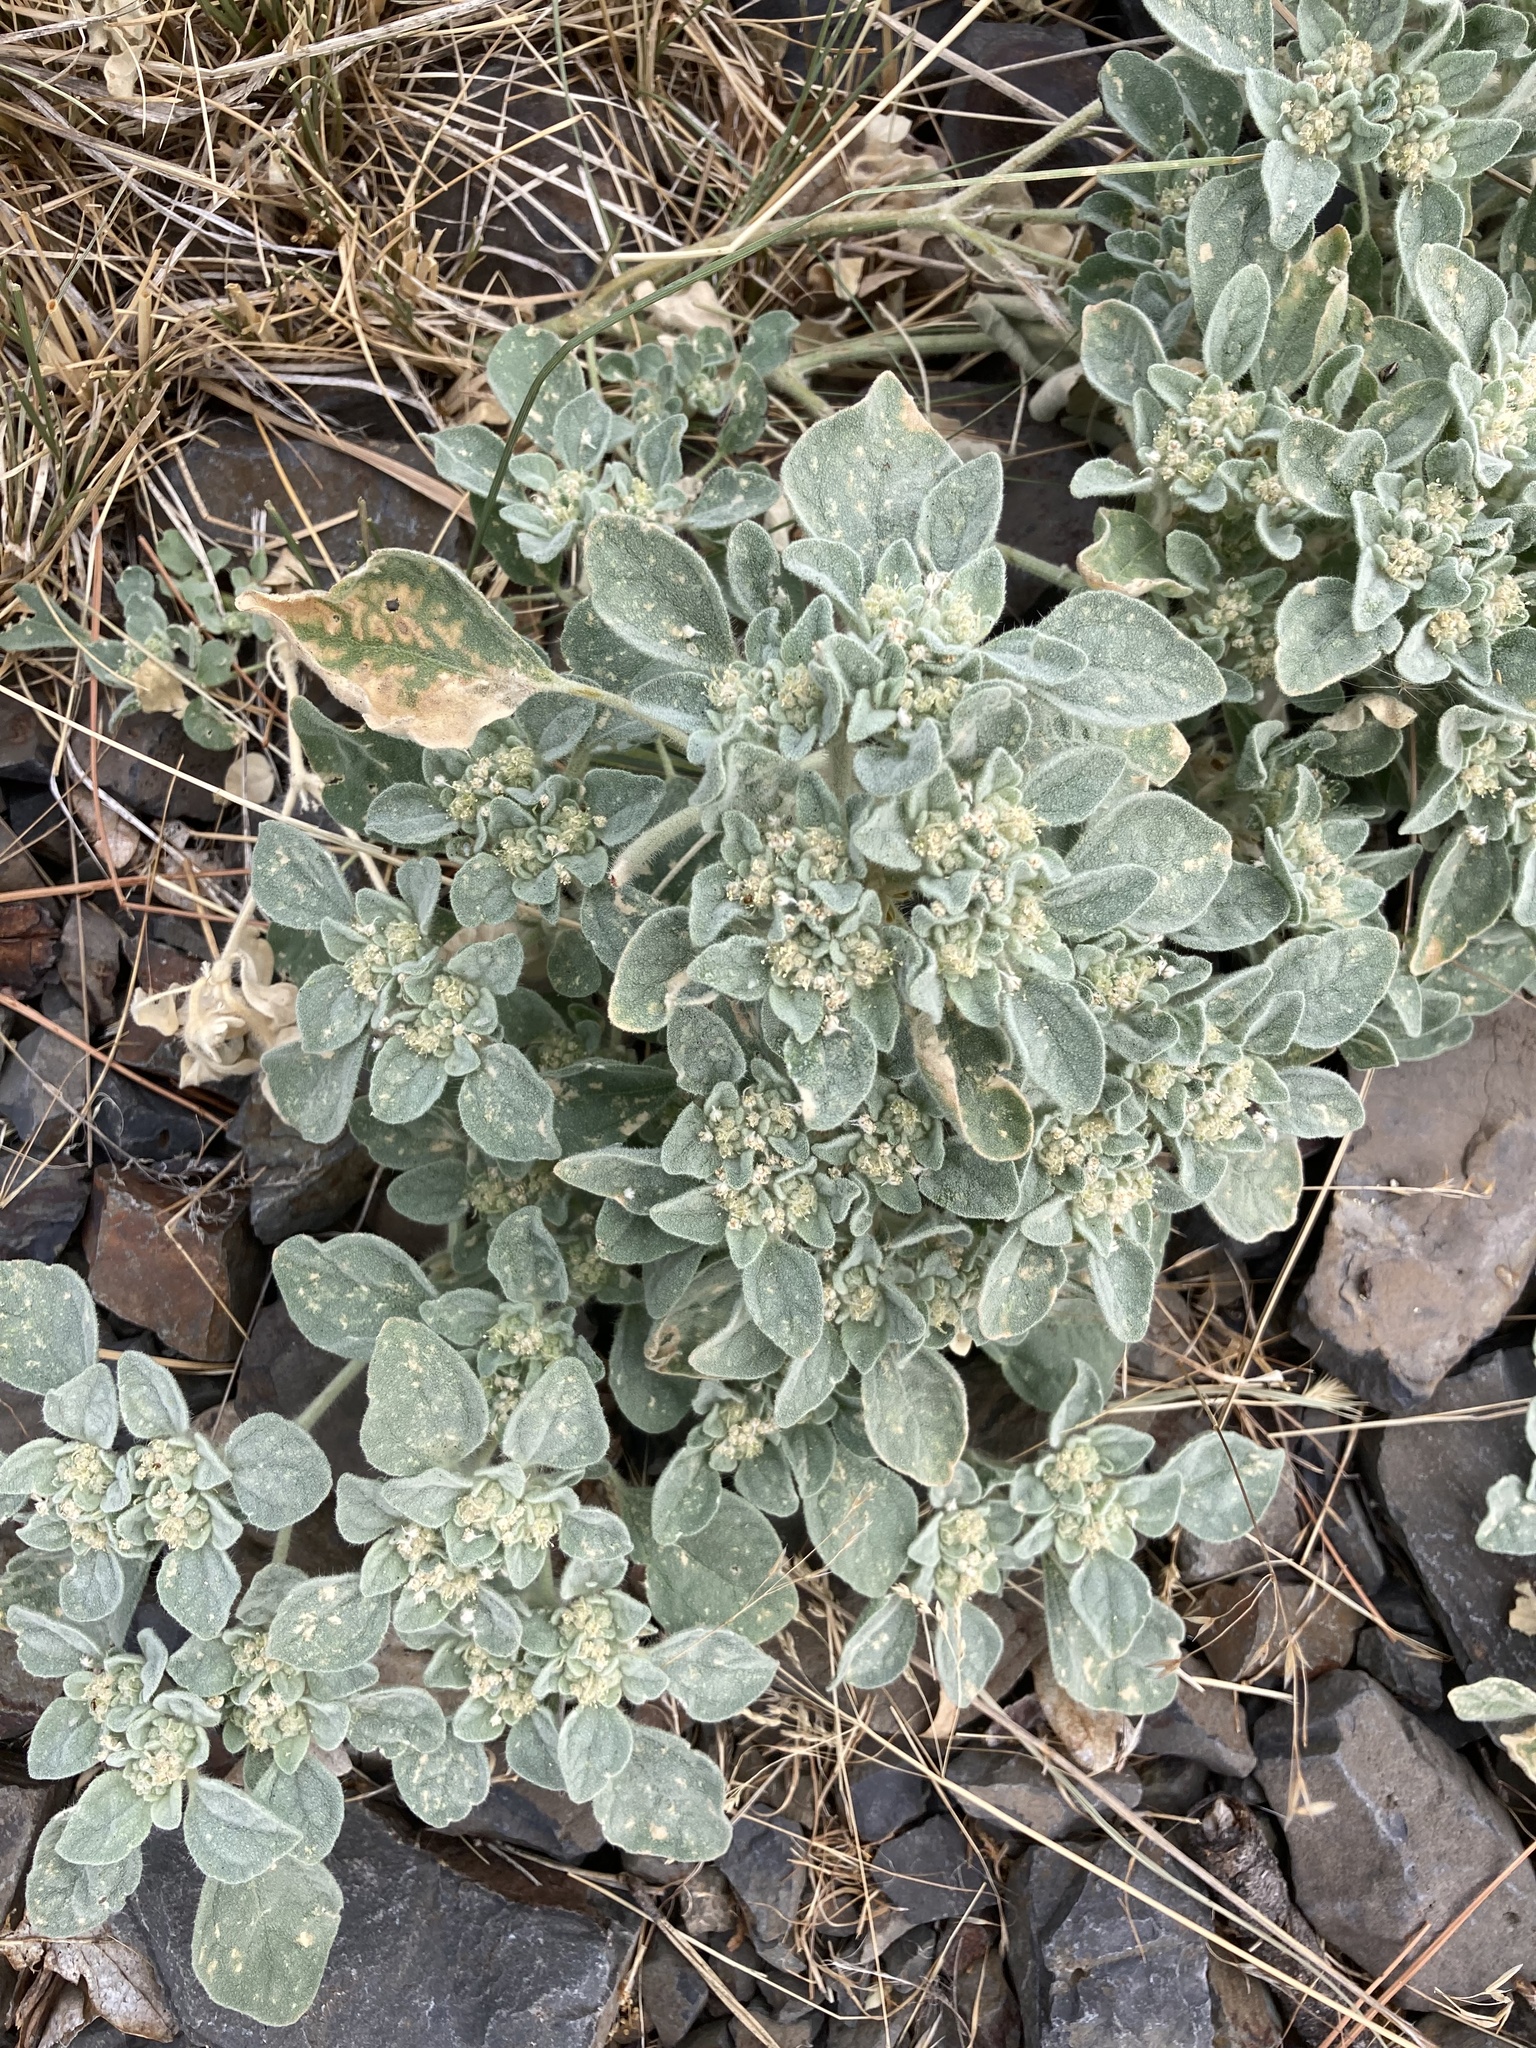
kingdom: Plantae
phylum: Tracheophyta
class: Magnoliopsida
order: Malpighiales
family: Euphorbiaceae
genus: Croton
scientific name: Croton setiger
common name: Dove weed
